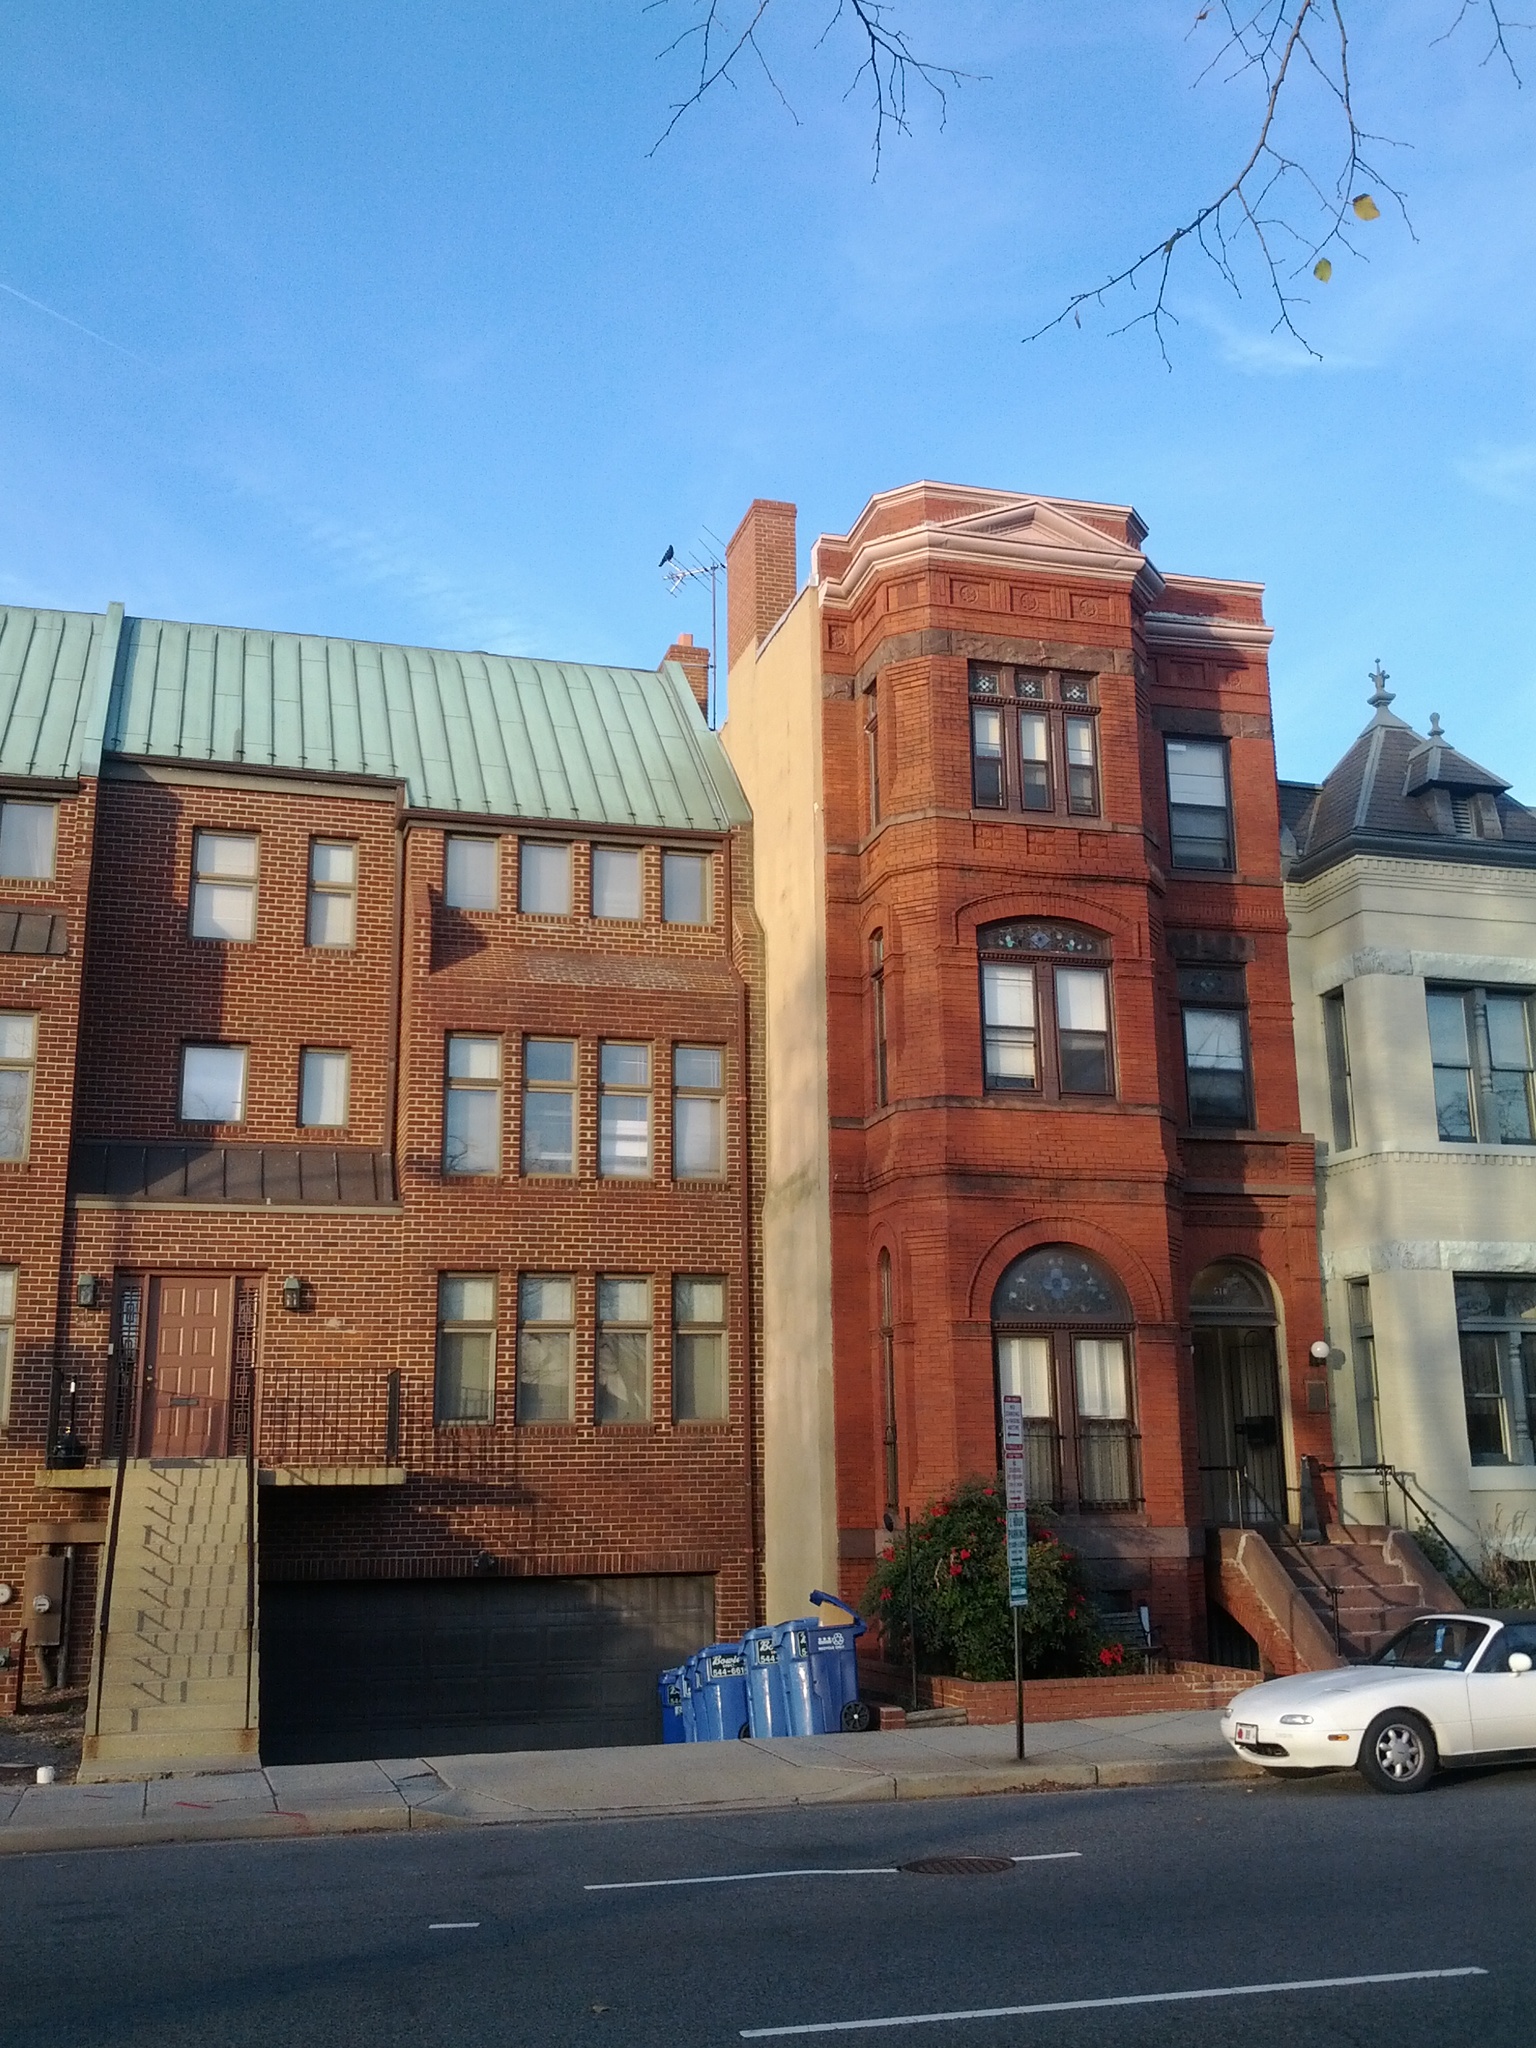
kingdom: Animalia
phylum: Chordata
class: Aves
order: Passeriformes
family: Corvidae
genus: Corvus
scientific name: Corvus brachyrhynchos
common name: American crow
